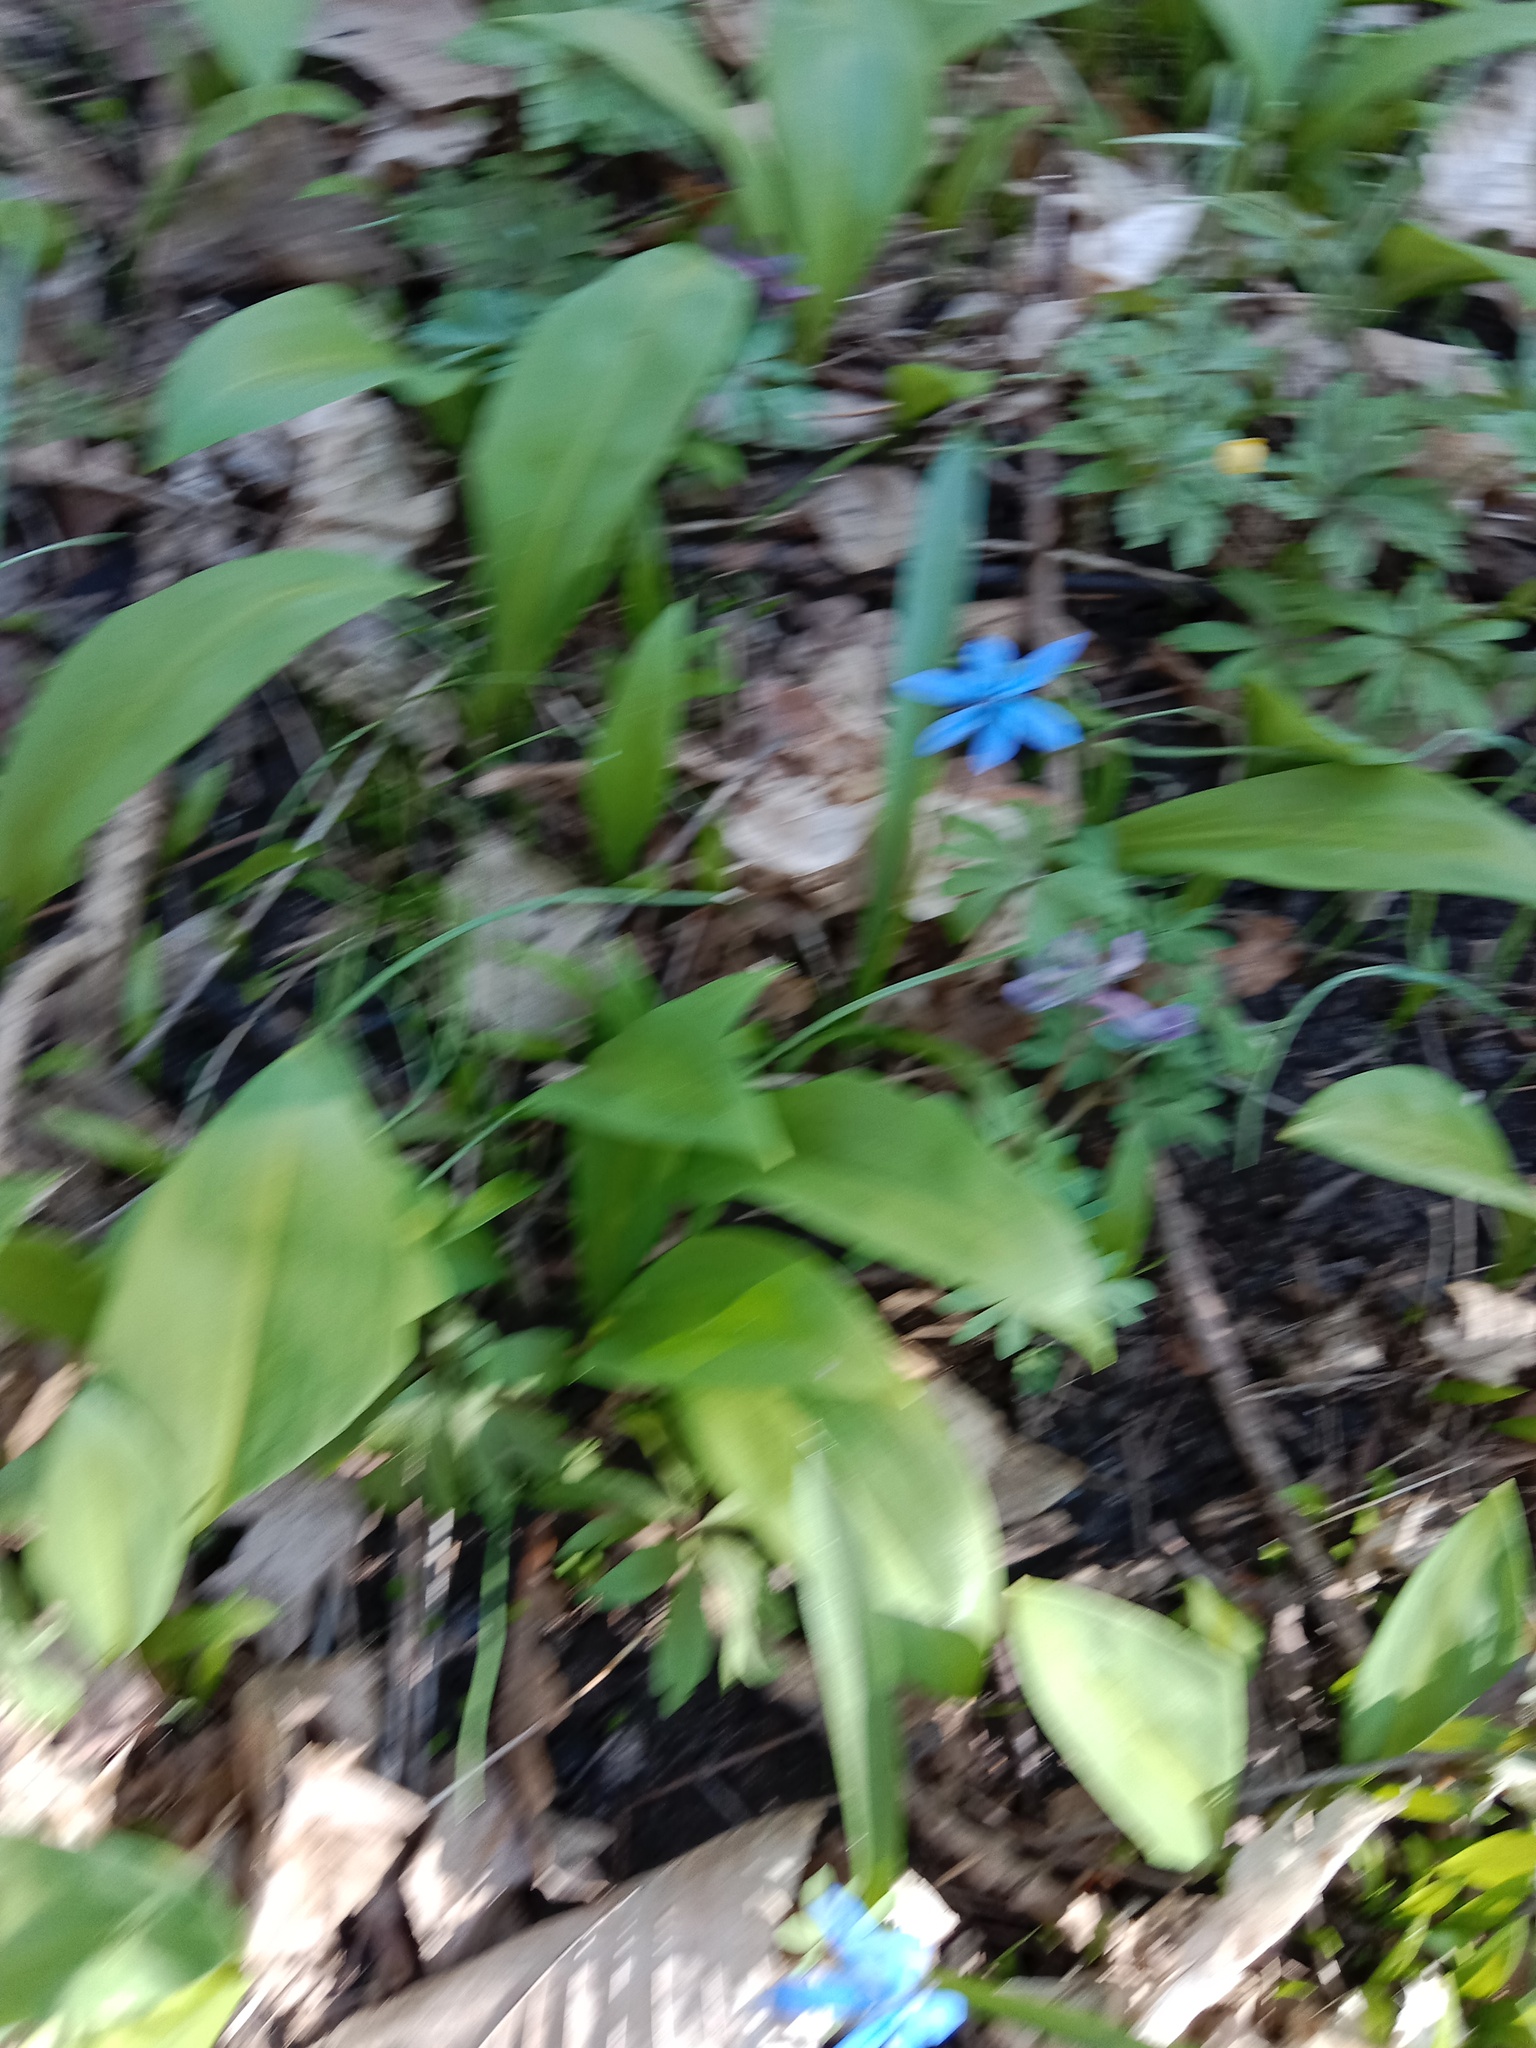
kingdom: Plantae
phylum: Tracheophyta
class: Liliopsida
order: Asparagales
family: Amaryllidaceae
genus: Allium
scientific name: Allium ursinum
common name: Ramsons
